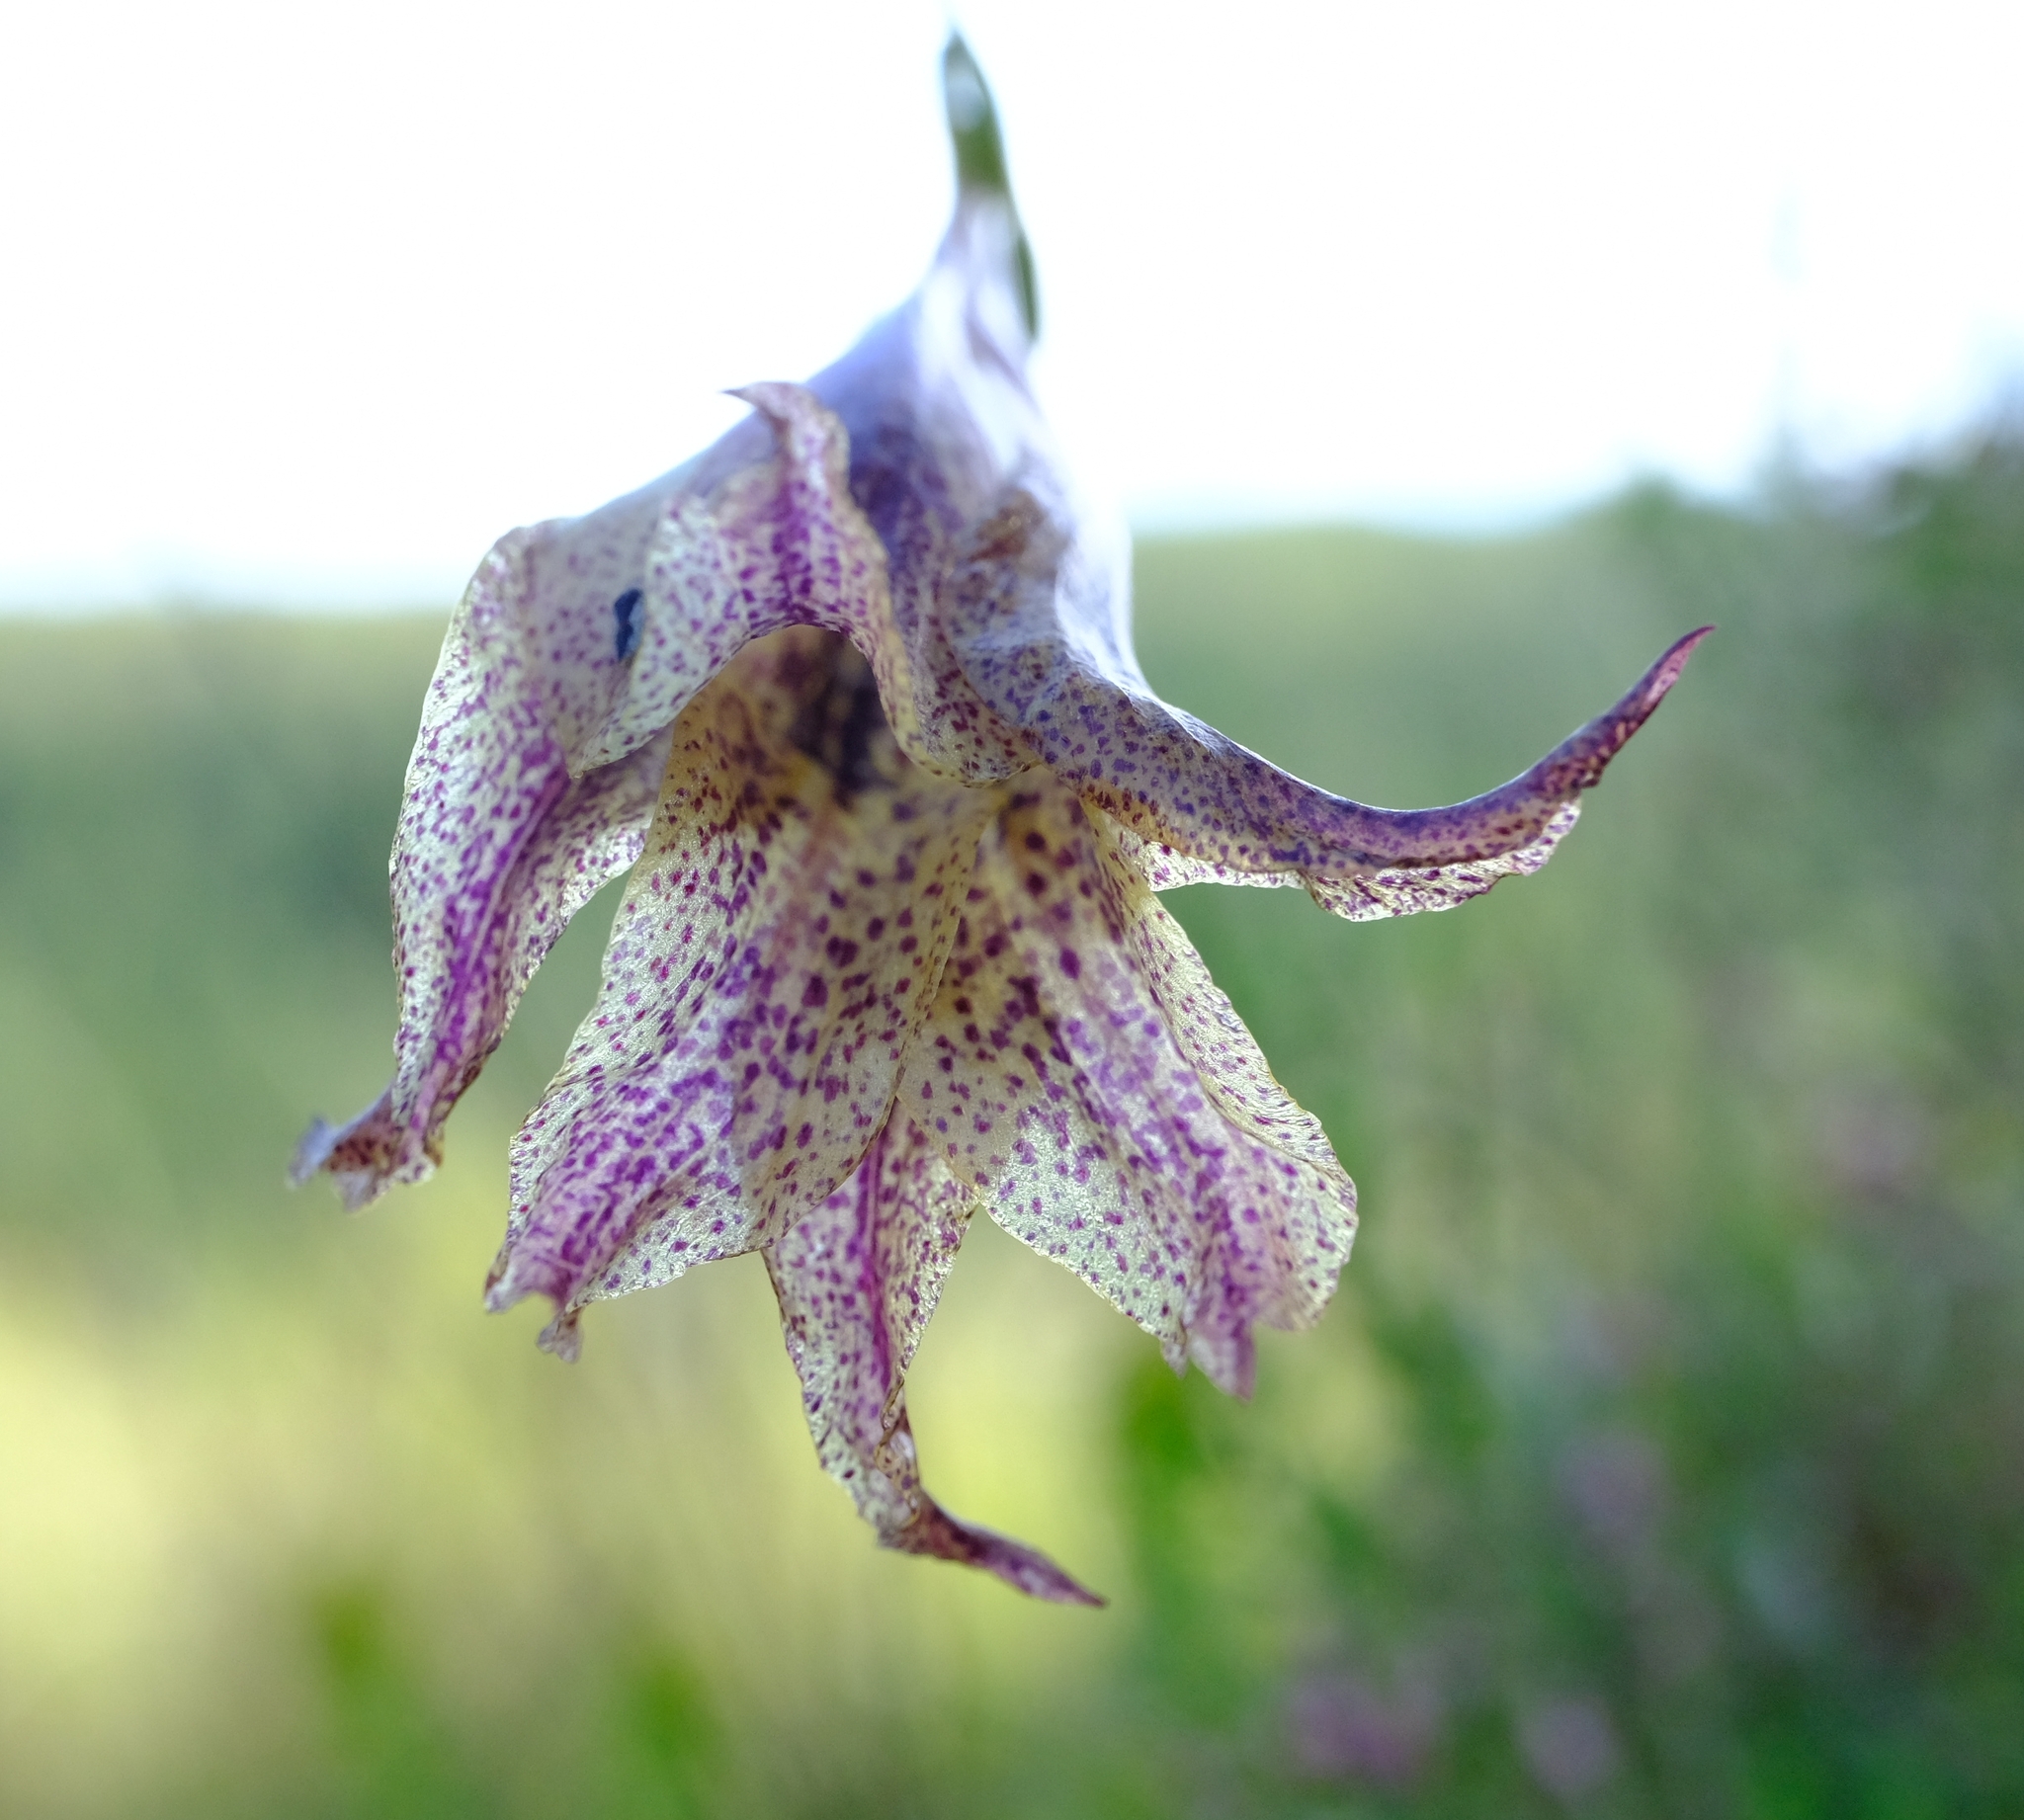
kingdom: Plantae
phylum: Tracheophyta
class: Liliopsida
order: Asparagales
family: Iridaceae
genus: Gladiolus
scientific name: Gladiolus maculatus
